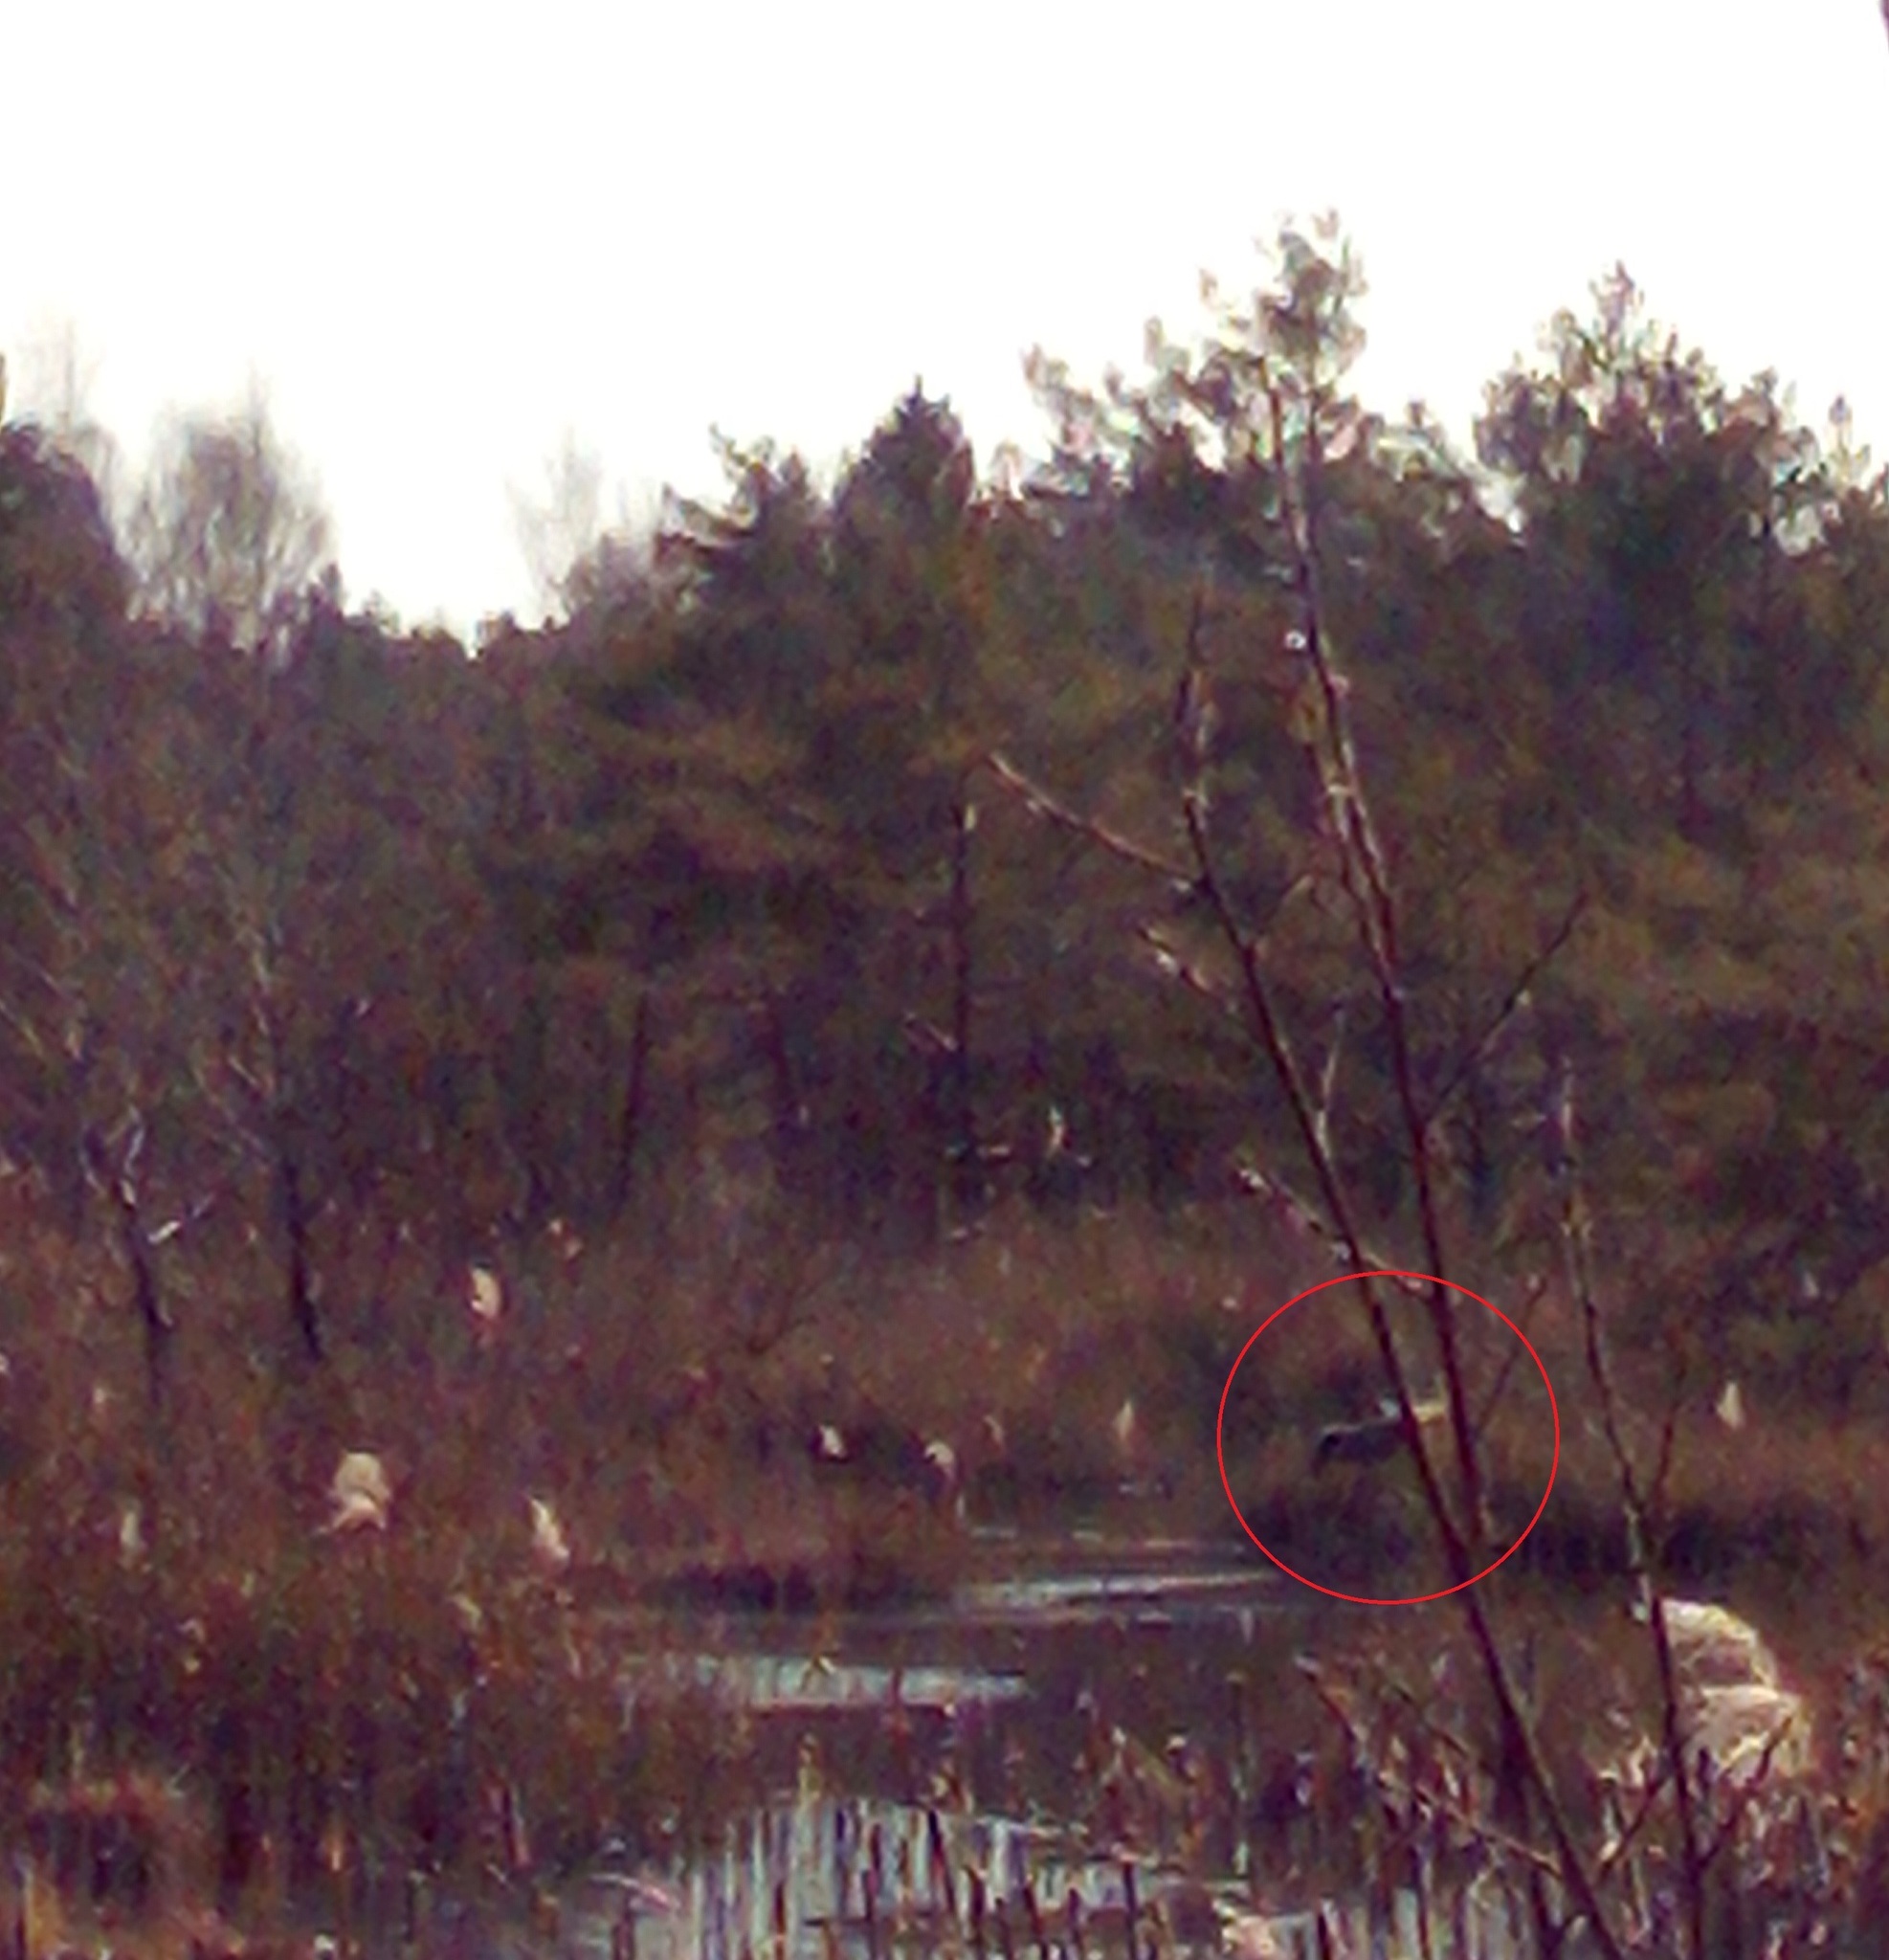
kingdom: Animalia
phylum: Chordata
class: Aves
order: Gruiformes
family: Gruidae
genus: Grus
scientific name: Grus grus
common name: Common crane
